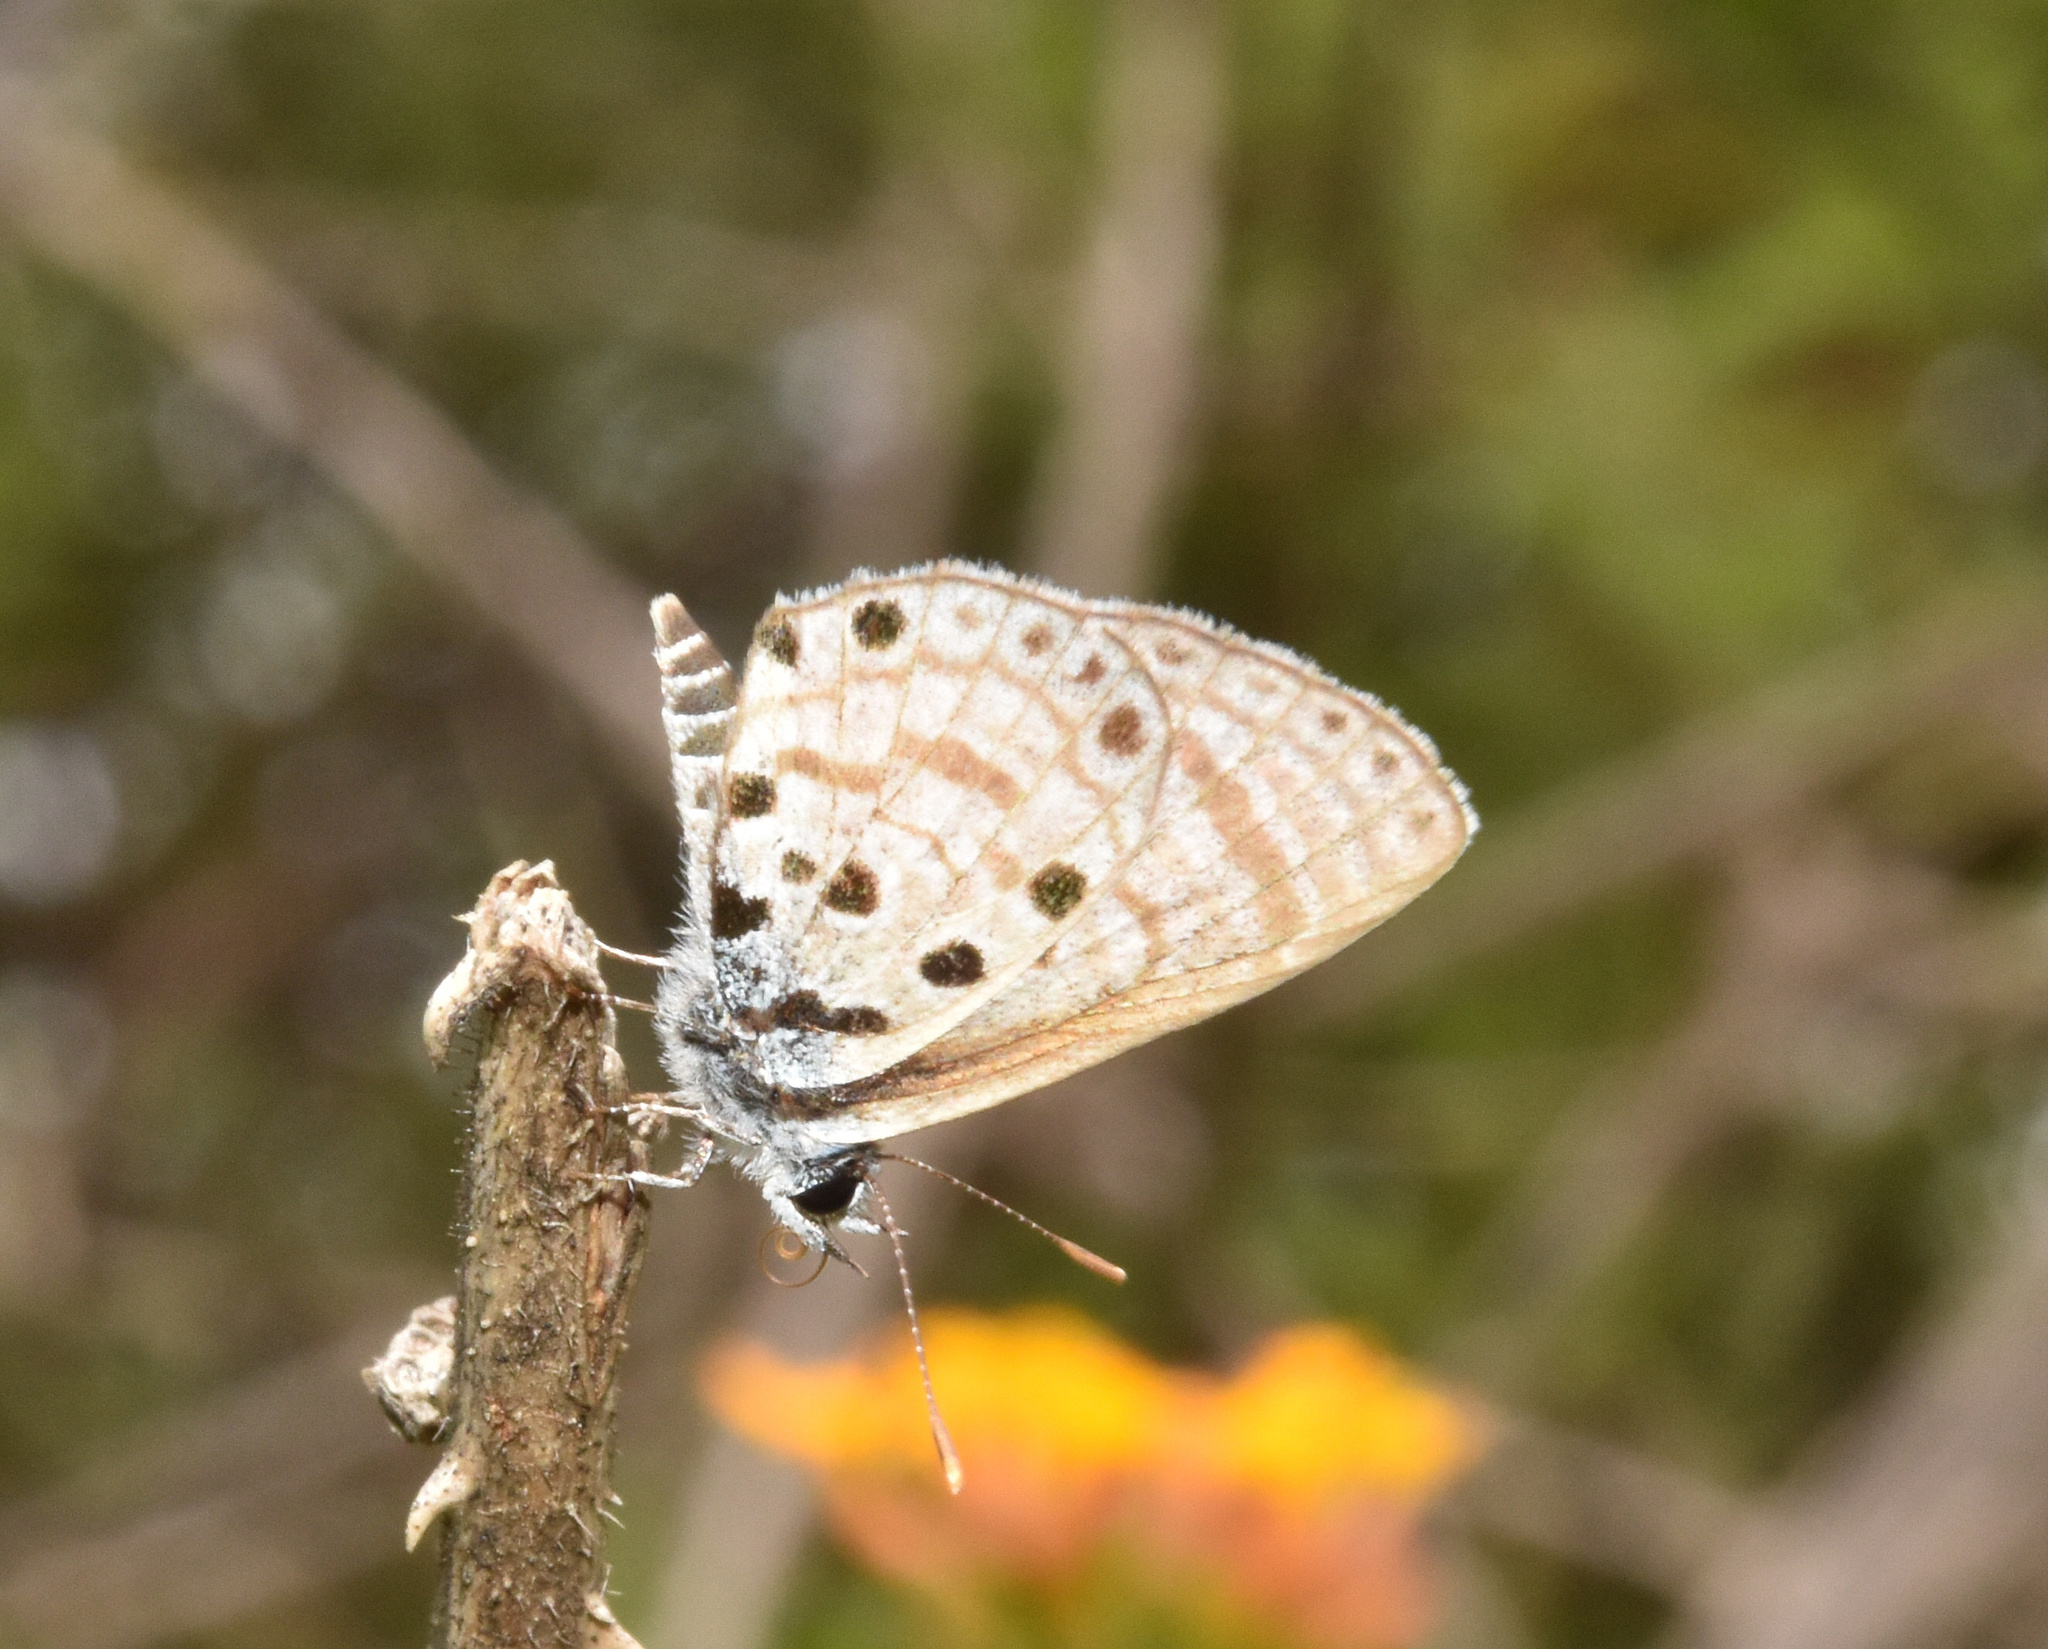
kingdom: Animalia
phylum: Arthropoda
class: Insecta
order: Lepidoptera
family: Lycaenidae
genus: Azanus
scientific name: Azanus jesous
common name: African babul blue
